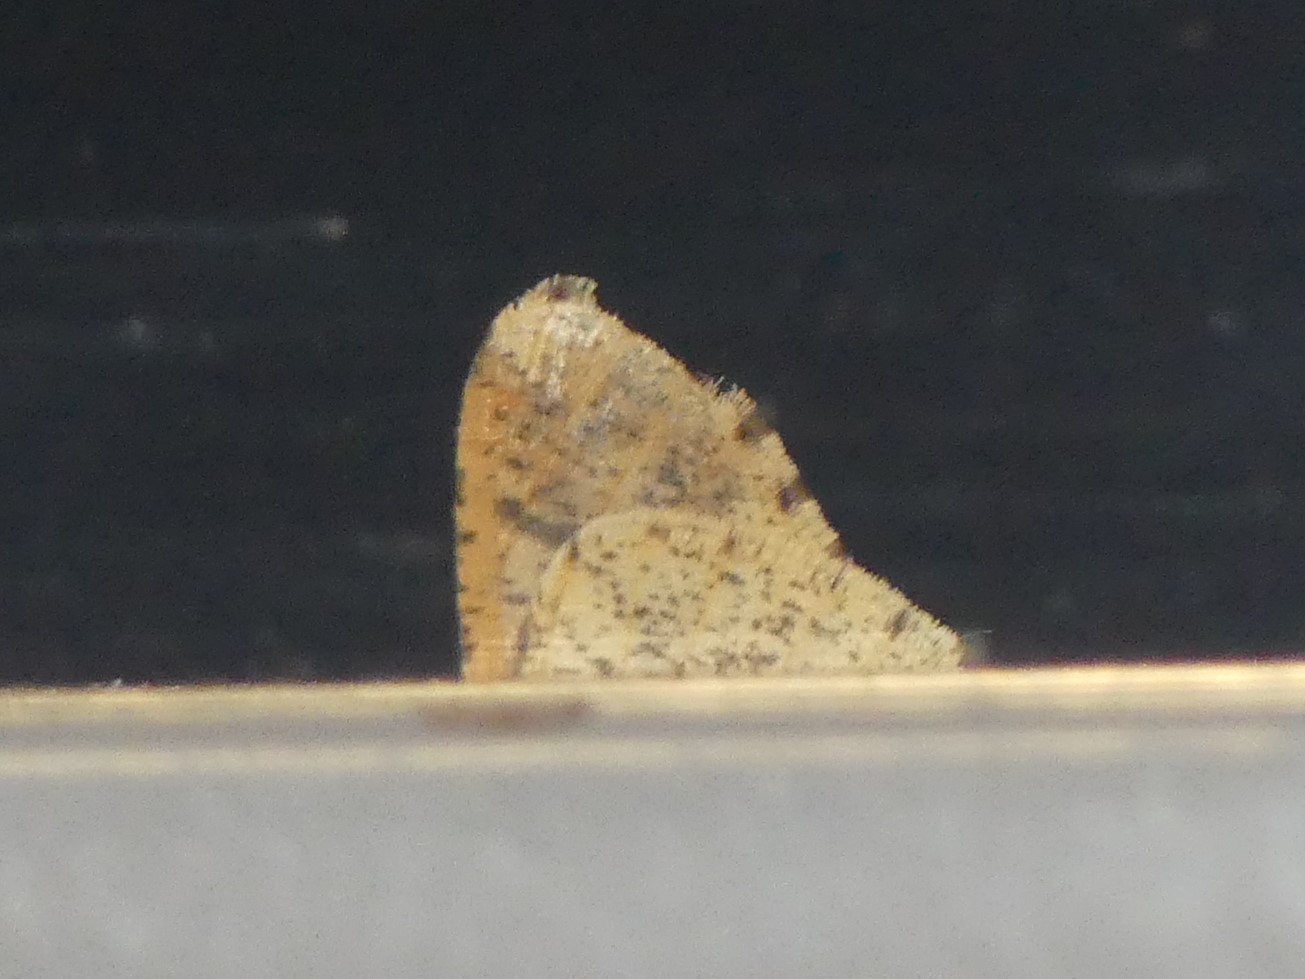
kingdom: Animalia
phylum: Arthropoda
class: Insecta
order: Lepidoptera
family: Geometridae
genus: Erannis
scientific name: Erannis defoliaria
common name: Mottled umber
